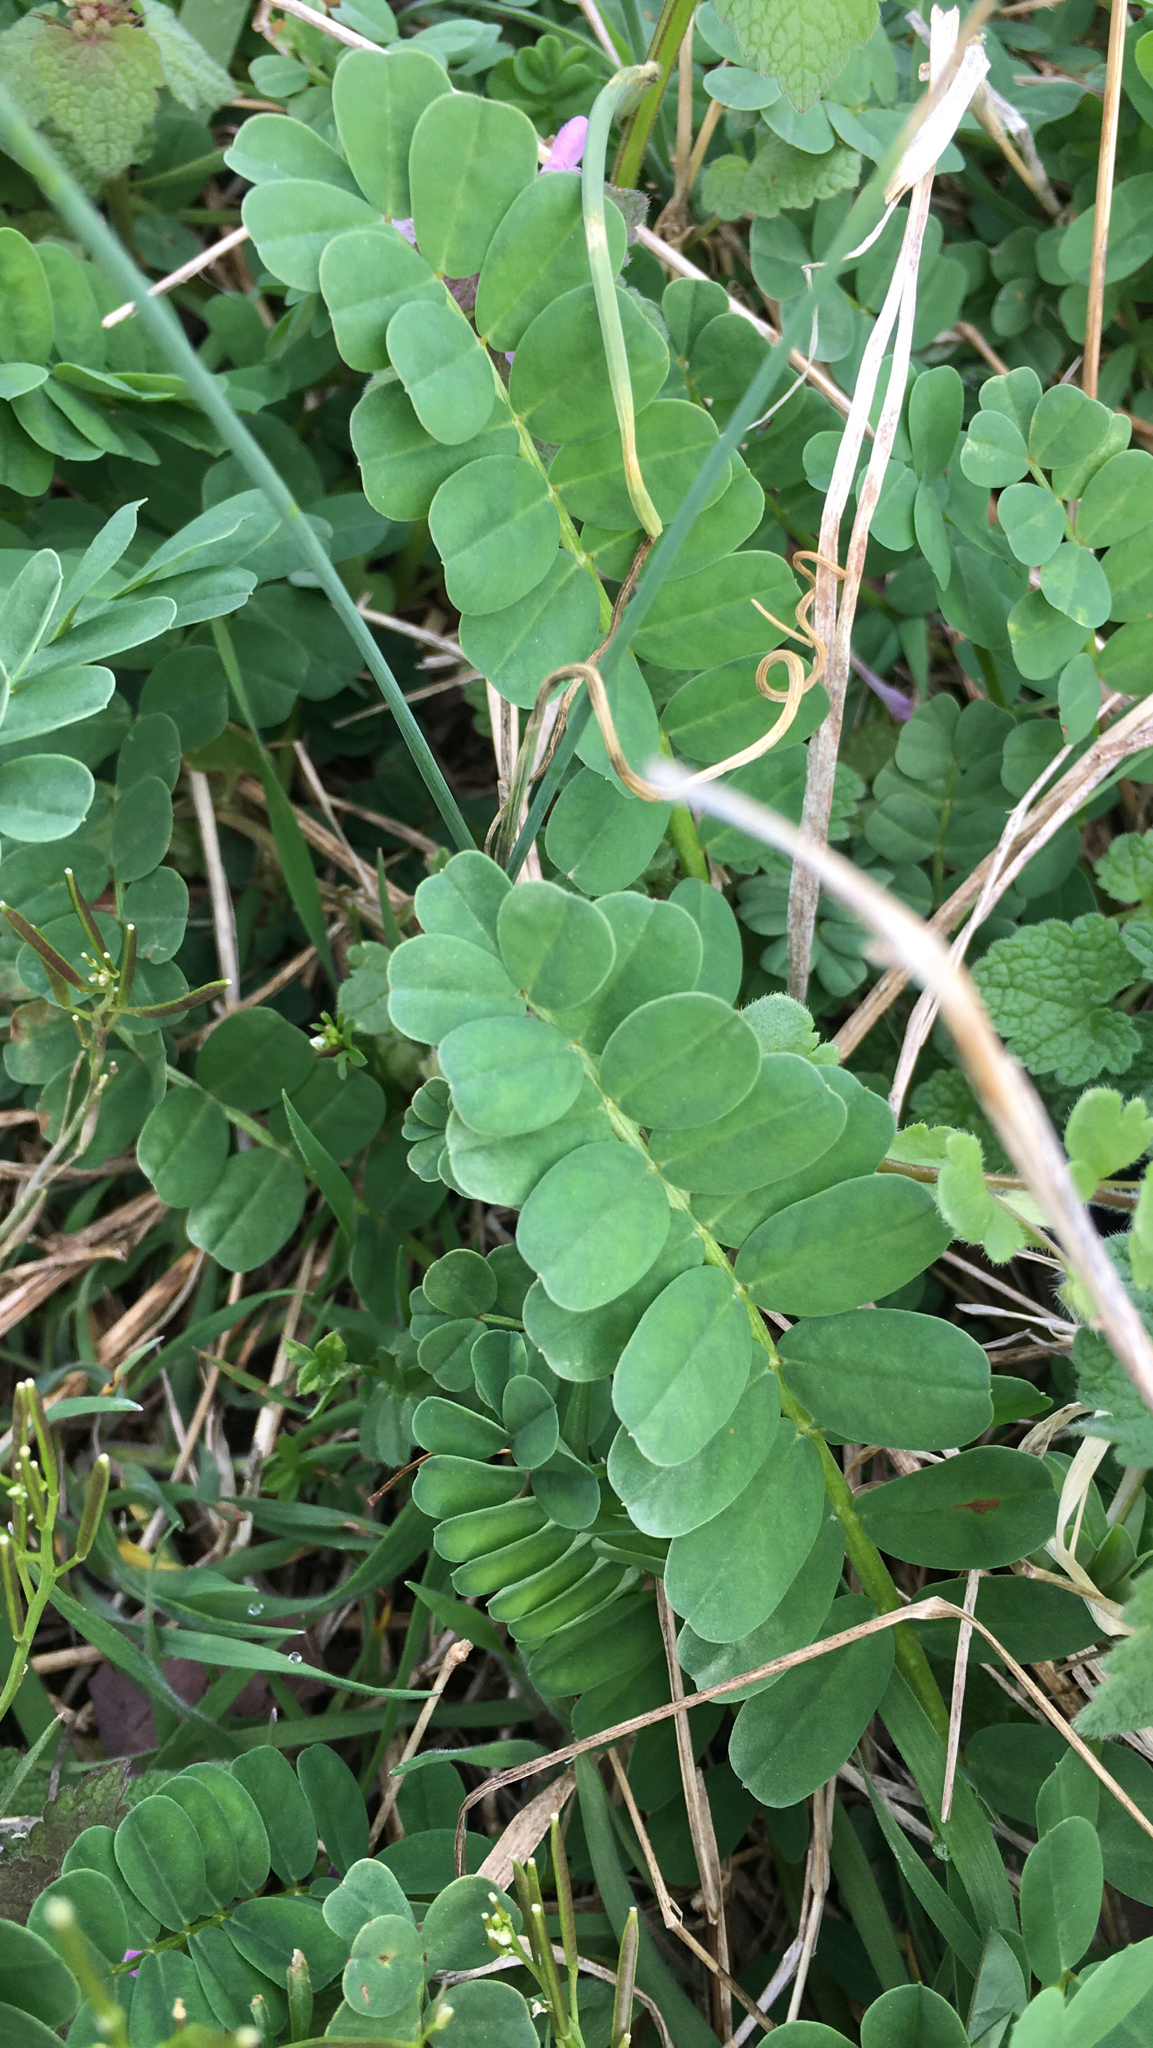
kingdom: Plantae
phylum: Tracheophyta
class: Magnoliopsida
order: Fabales
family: Fabaceae
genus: Coronilla
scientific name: Coronilla varia
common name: Crownvetch
